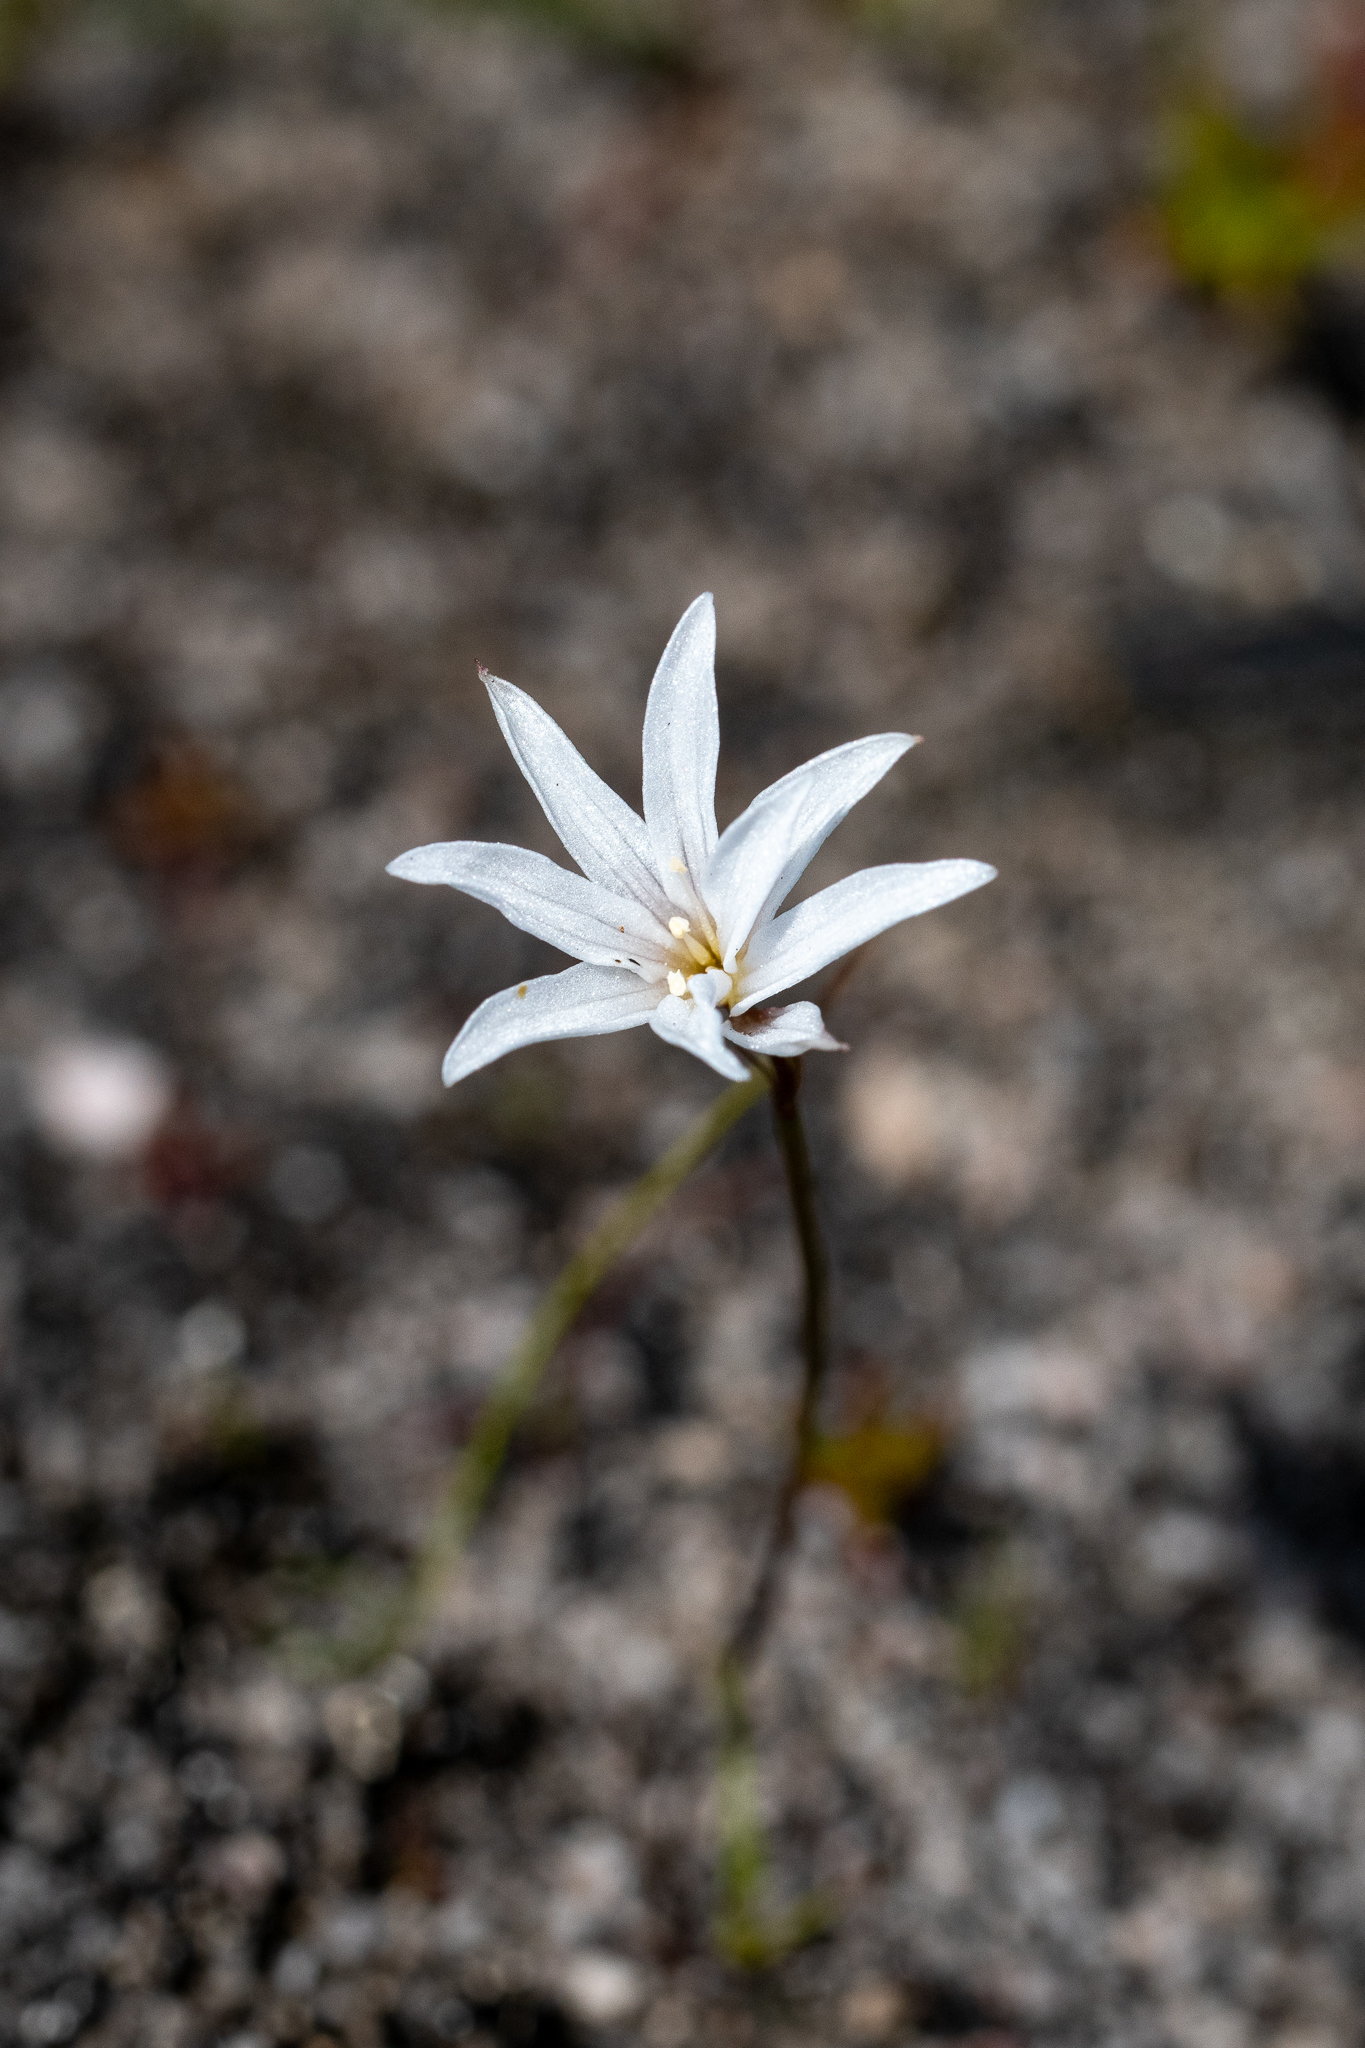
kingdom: Plantae
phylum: Tracheophyta
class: Liliopsida
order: Asparagales
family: Amaryllidaceae
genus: Strumaria
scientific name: Strumaria spiralis
